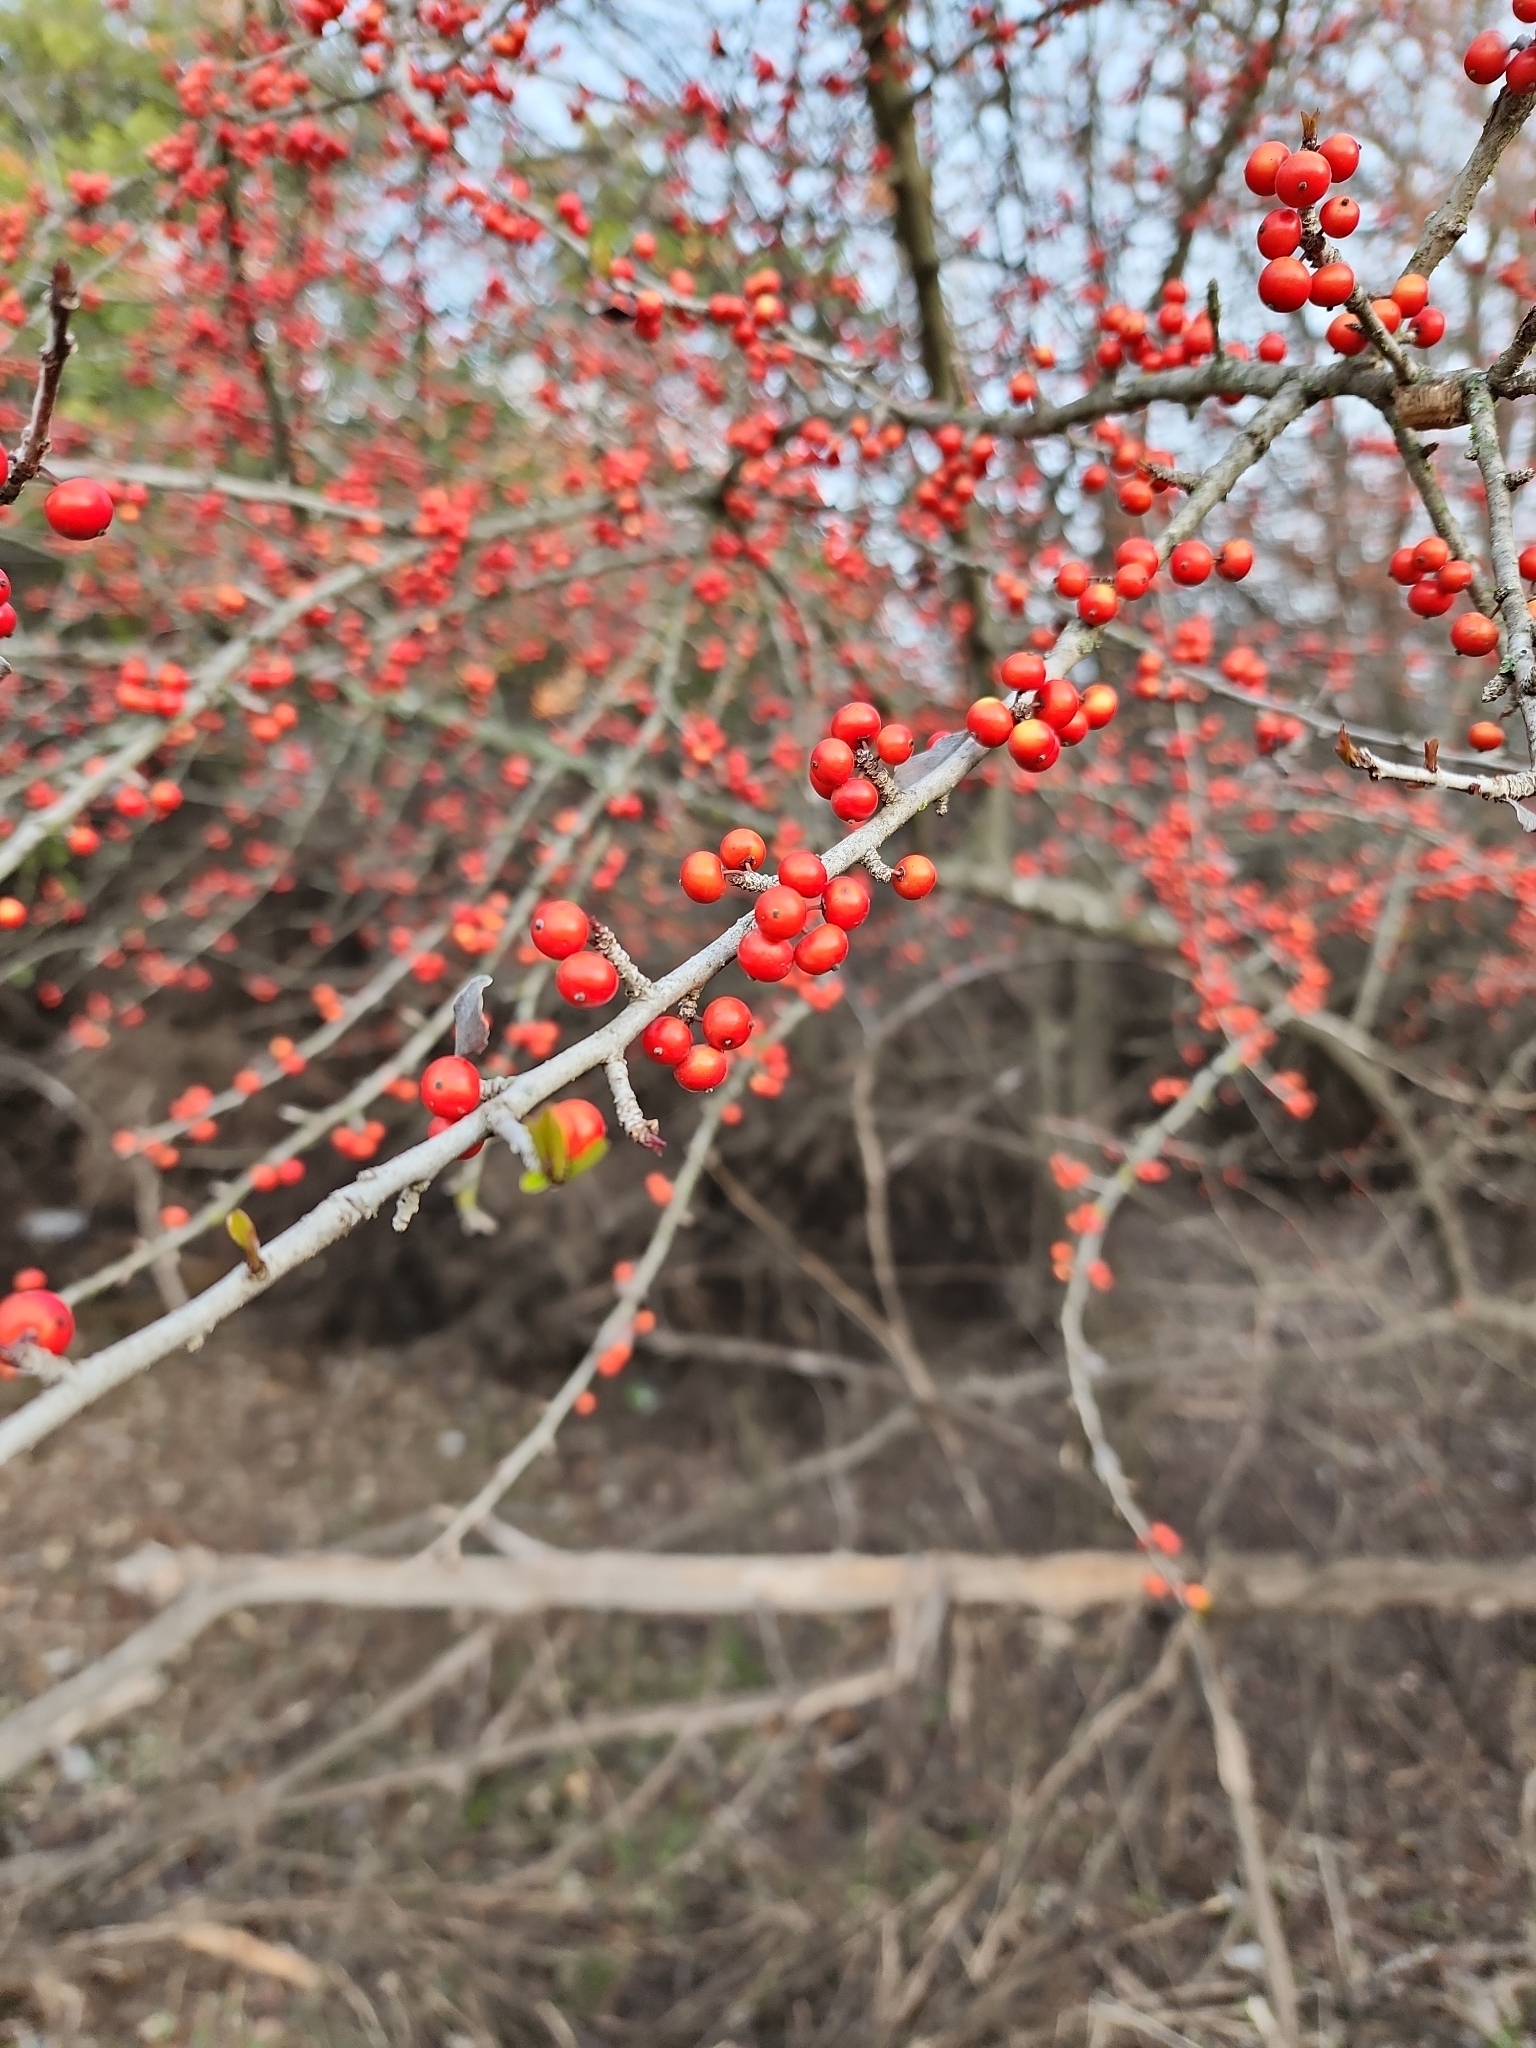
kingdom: Plantae
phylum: Tracheophyta
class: Magnoliopsida
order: Aquifoliales
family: Aquifoliaceae
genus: Ilex
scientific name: Ilex decidua
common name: Possum-haw
